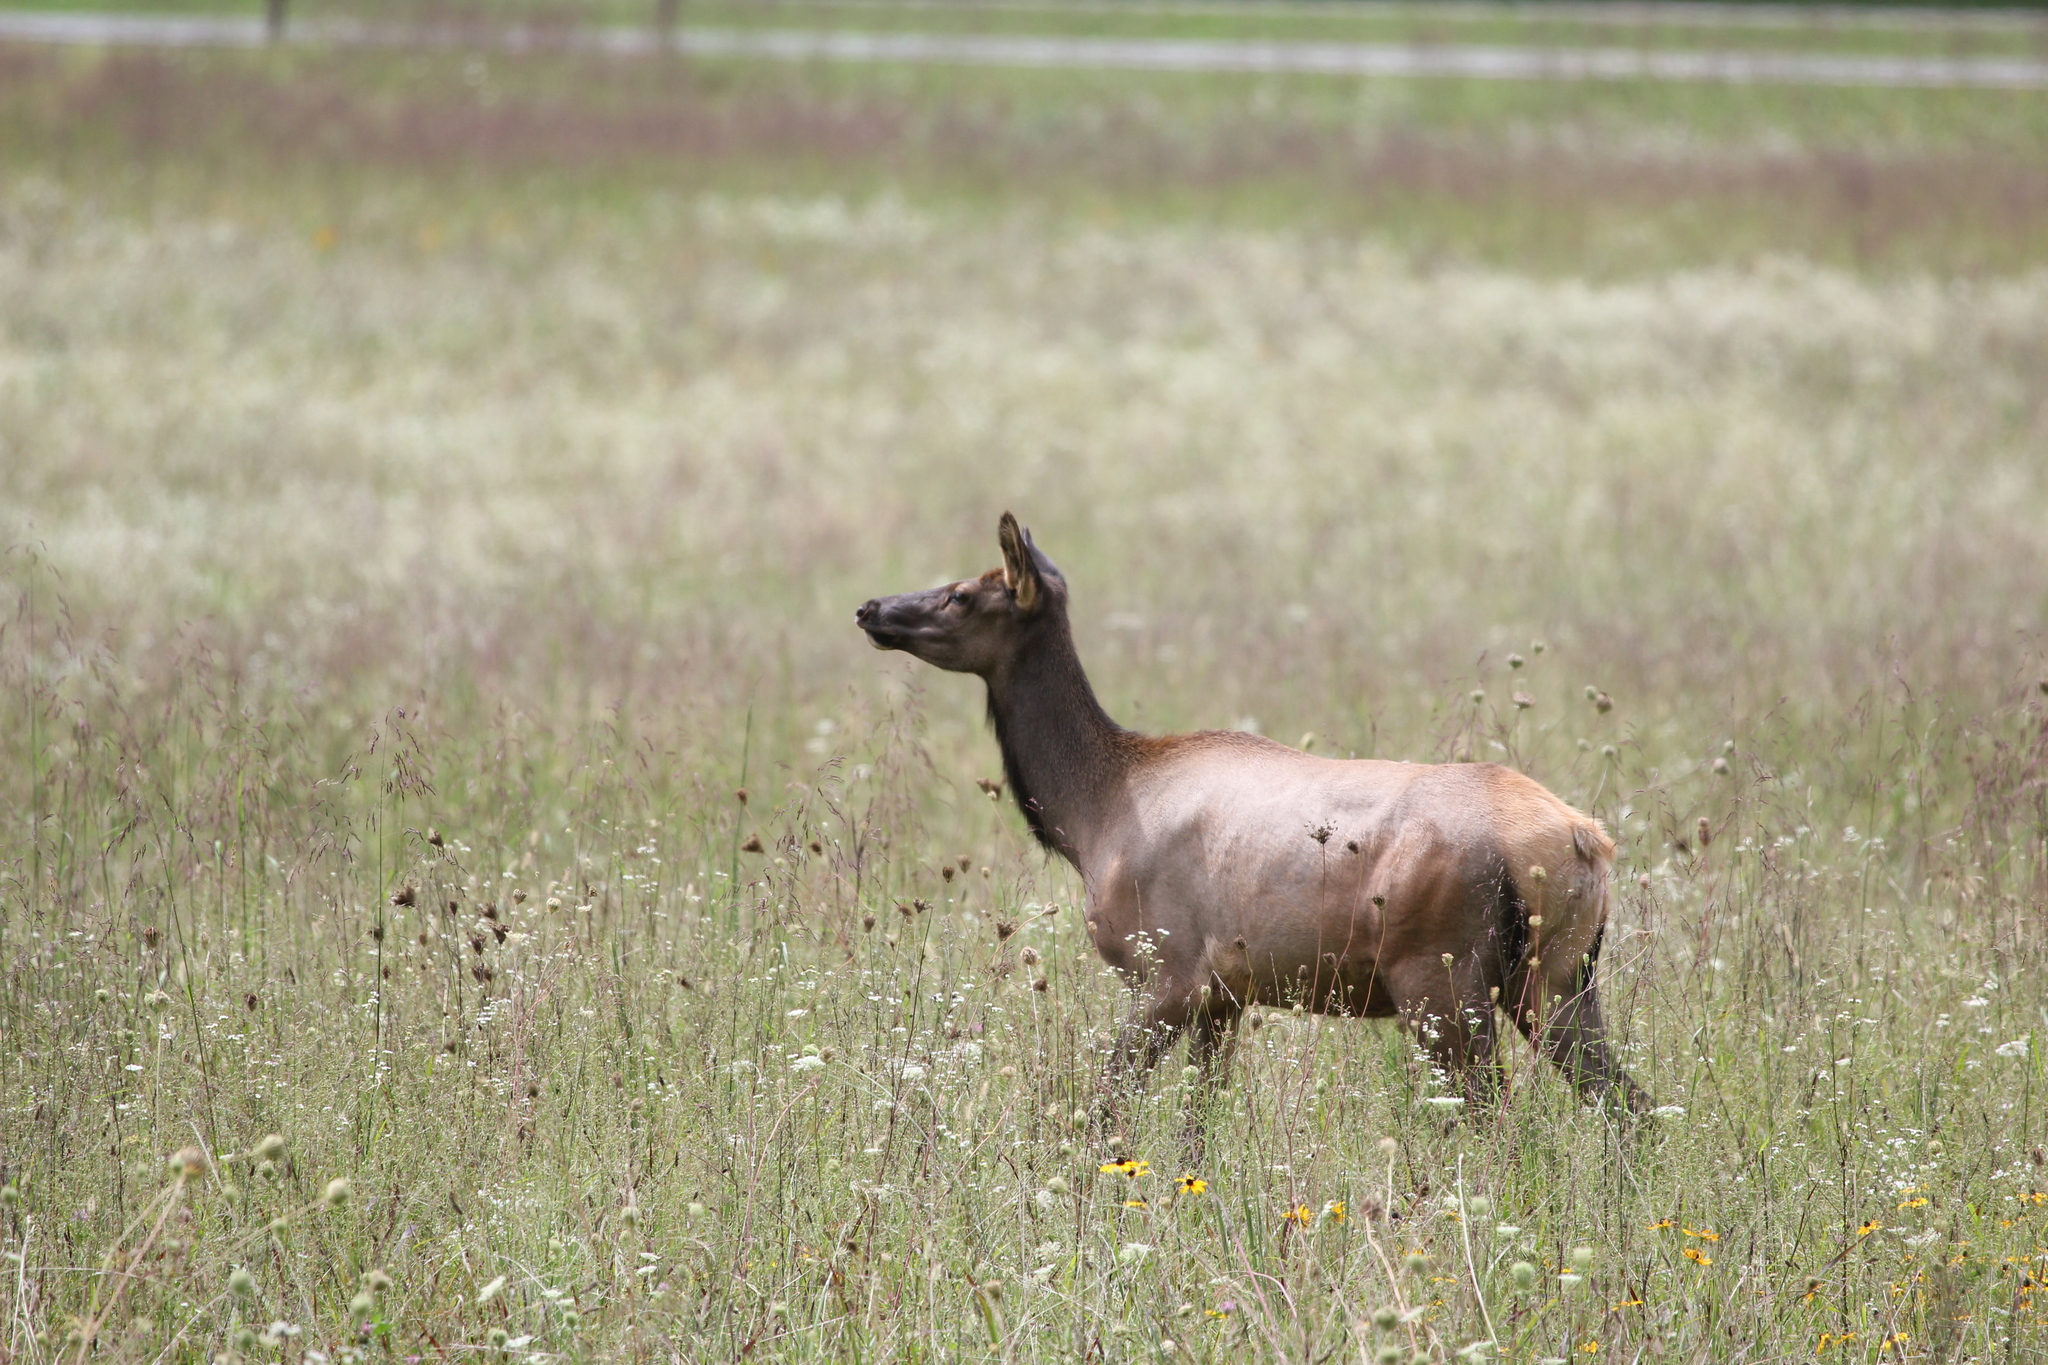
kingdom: Animalia
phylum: Chordata
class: Mammalia
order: Artiodactyla
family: Cervidae
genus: Cervus
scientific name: Cervus elaphus
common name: Red deer
